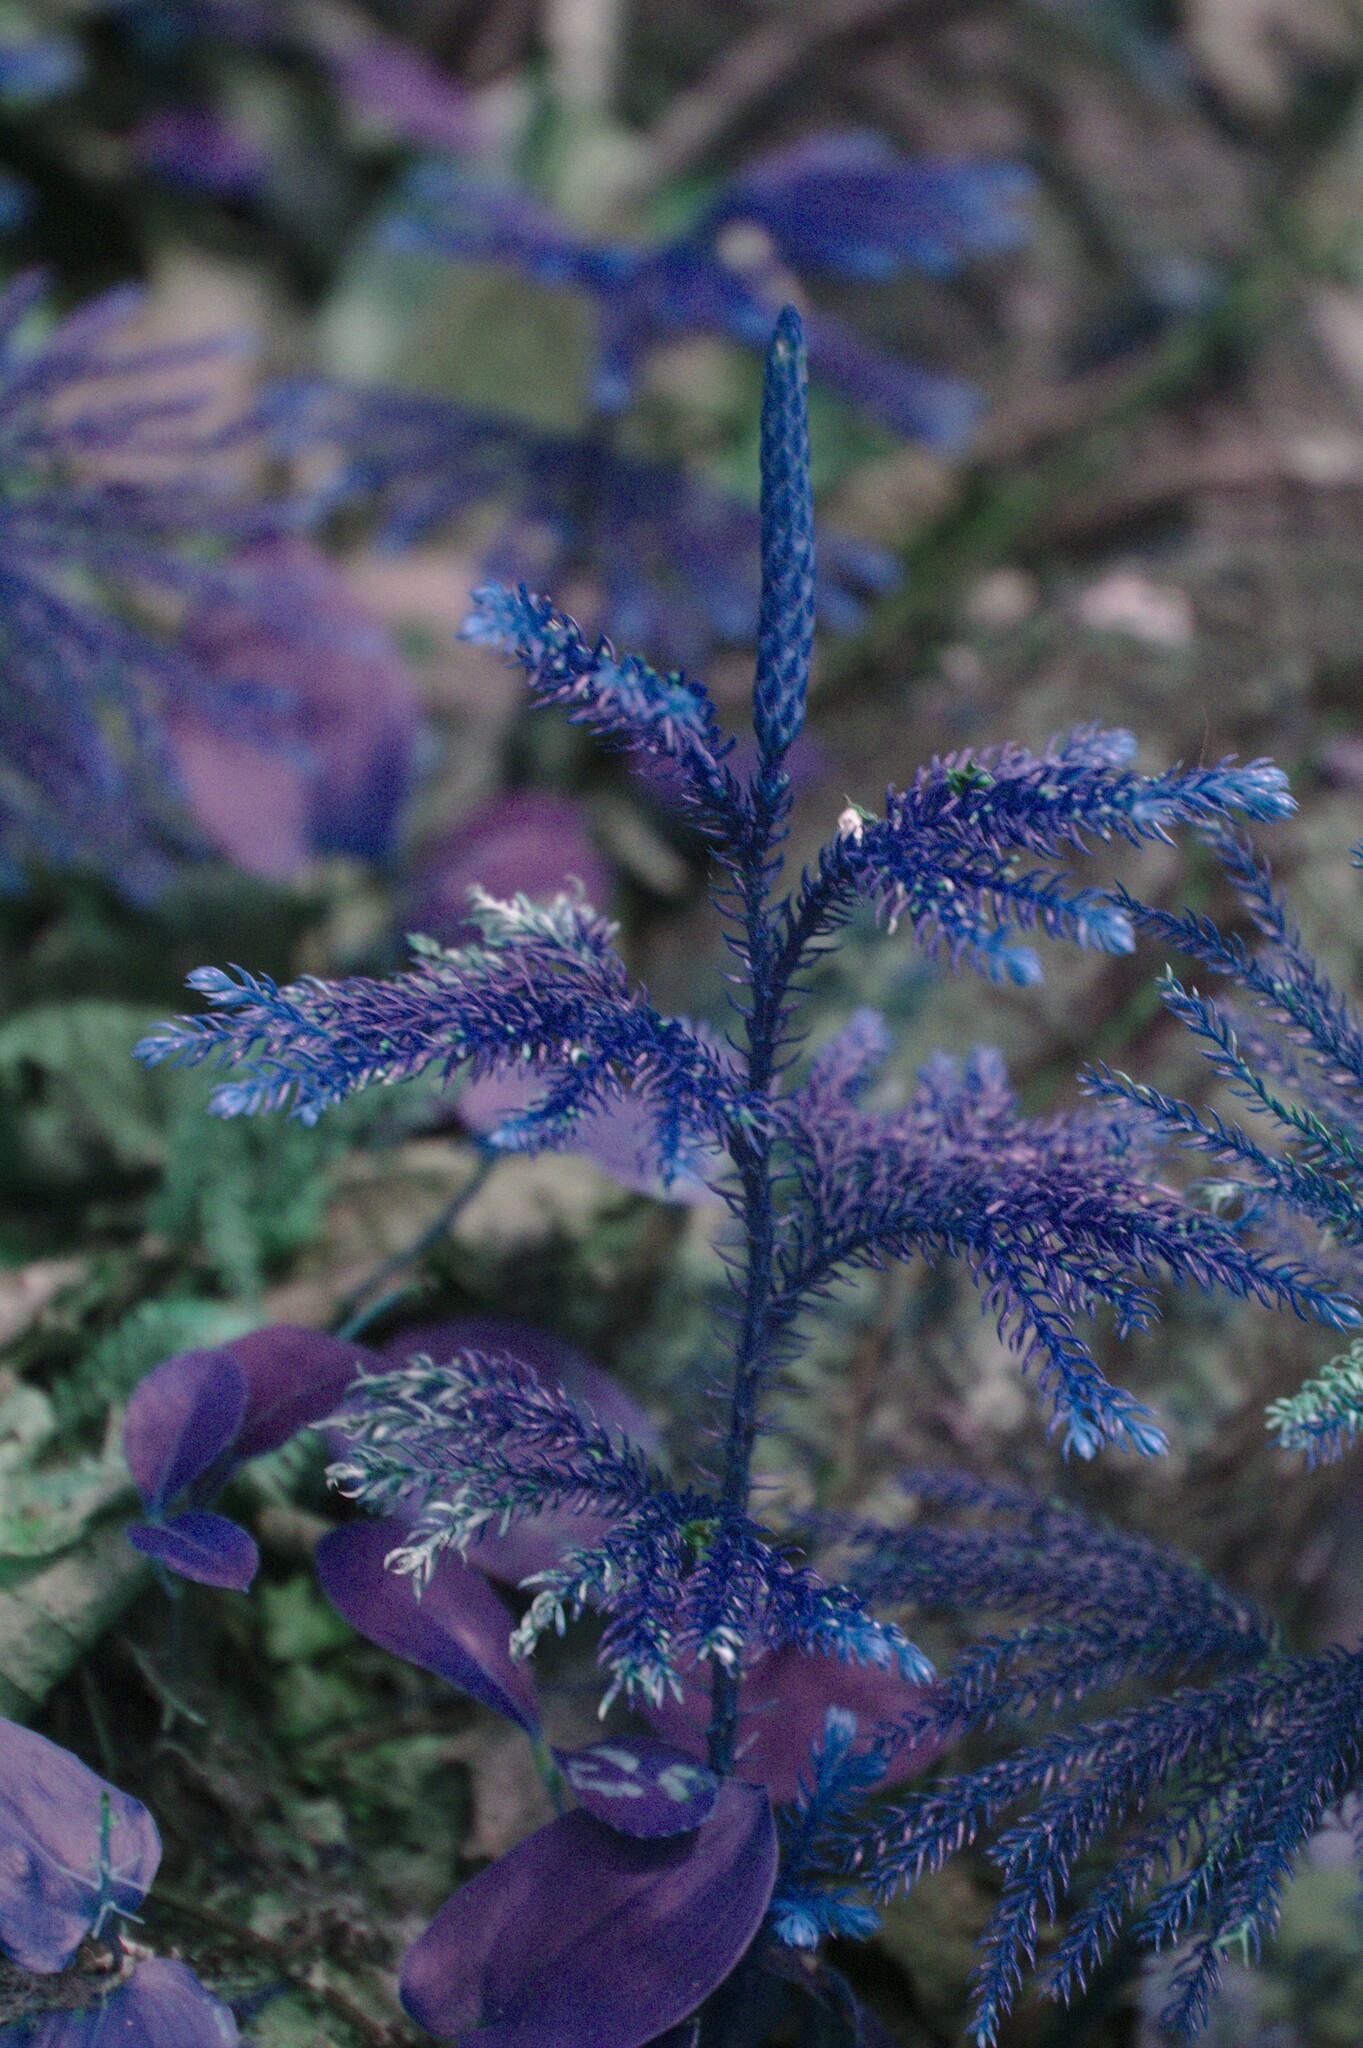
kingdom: Plantae
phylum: Tracheophyta
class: Lycopodiopsida
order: Lycopodiales
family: Lycopodiaceae
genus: Dendrolycopodium
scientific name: Dendrolycopodium dendroideum
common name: Northern tree-clubmoss
